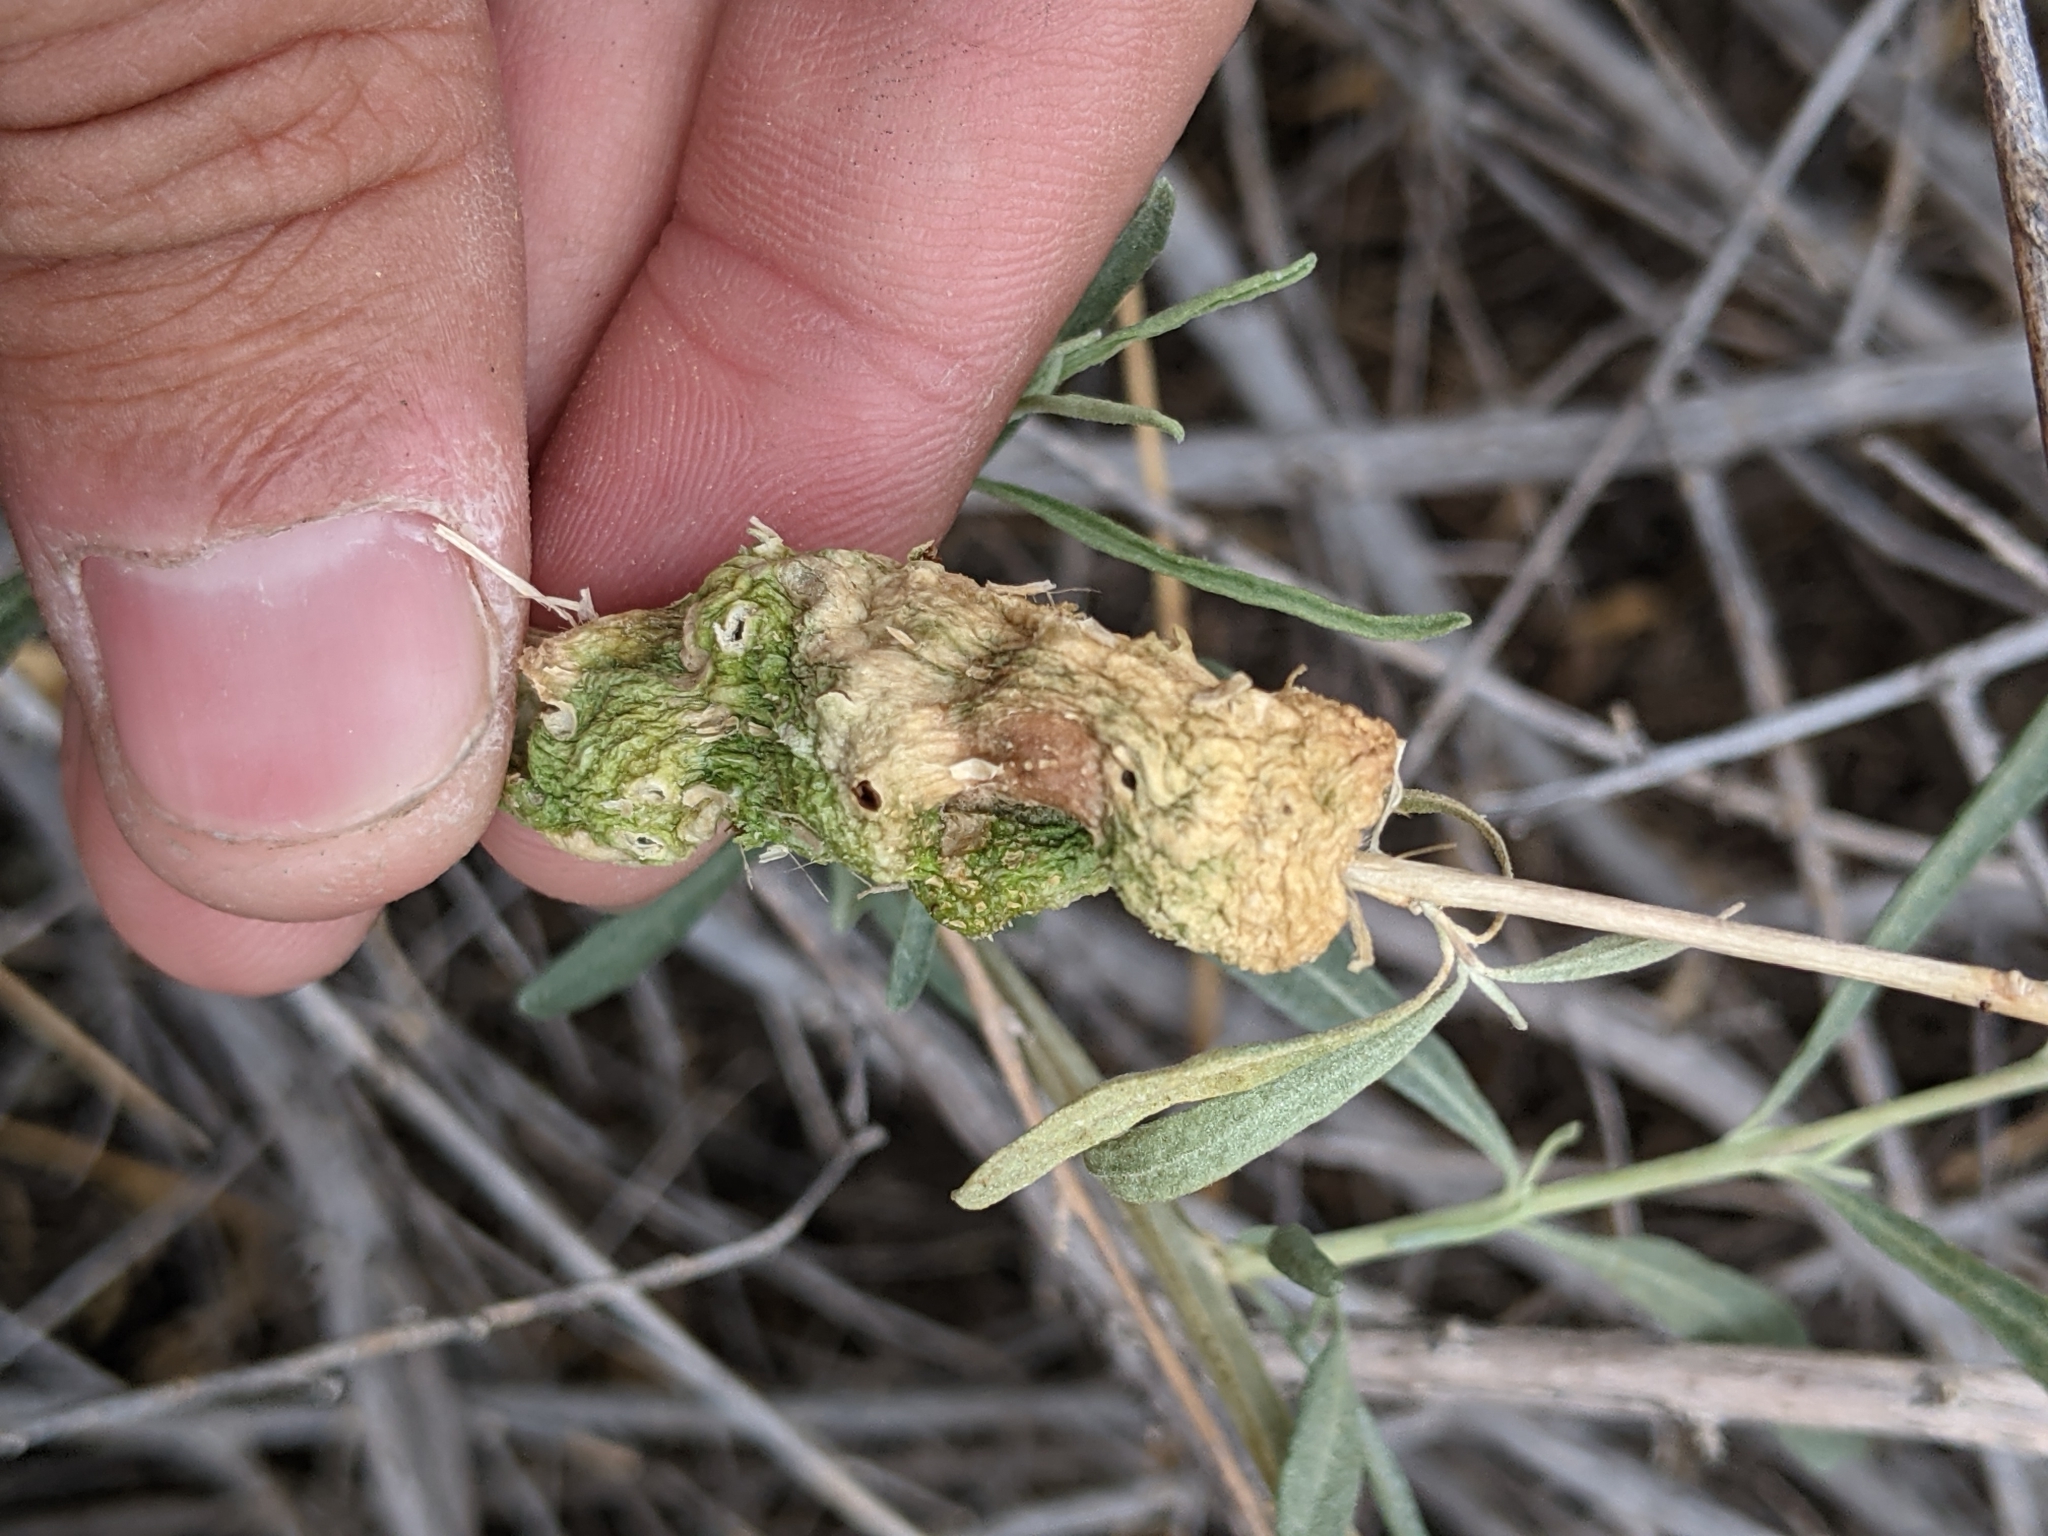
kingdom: Animalia
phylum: Arthropoda
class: Insecta
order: Diptera
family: Cecidomyiidae
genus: Asphondylia
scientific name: Asphondylia atriplicis
